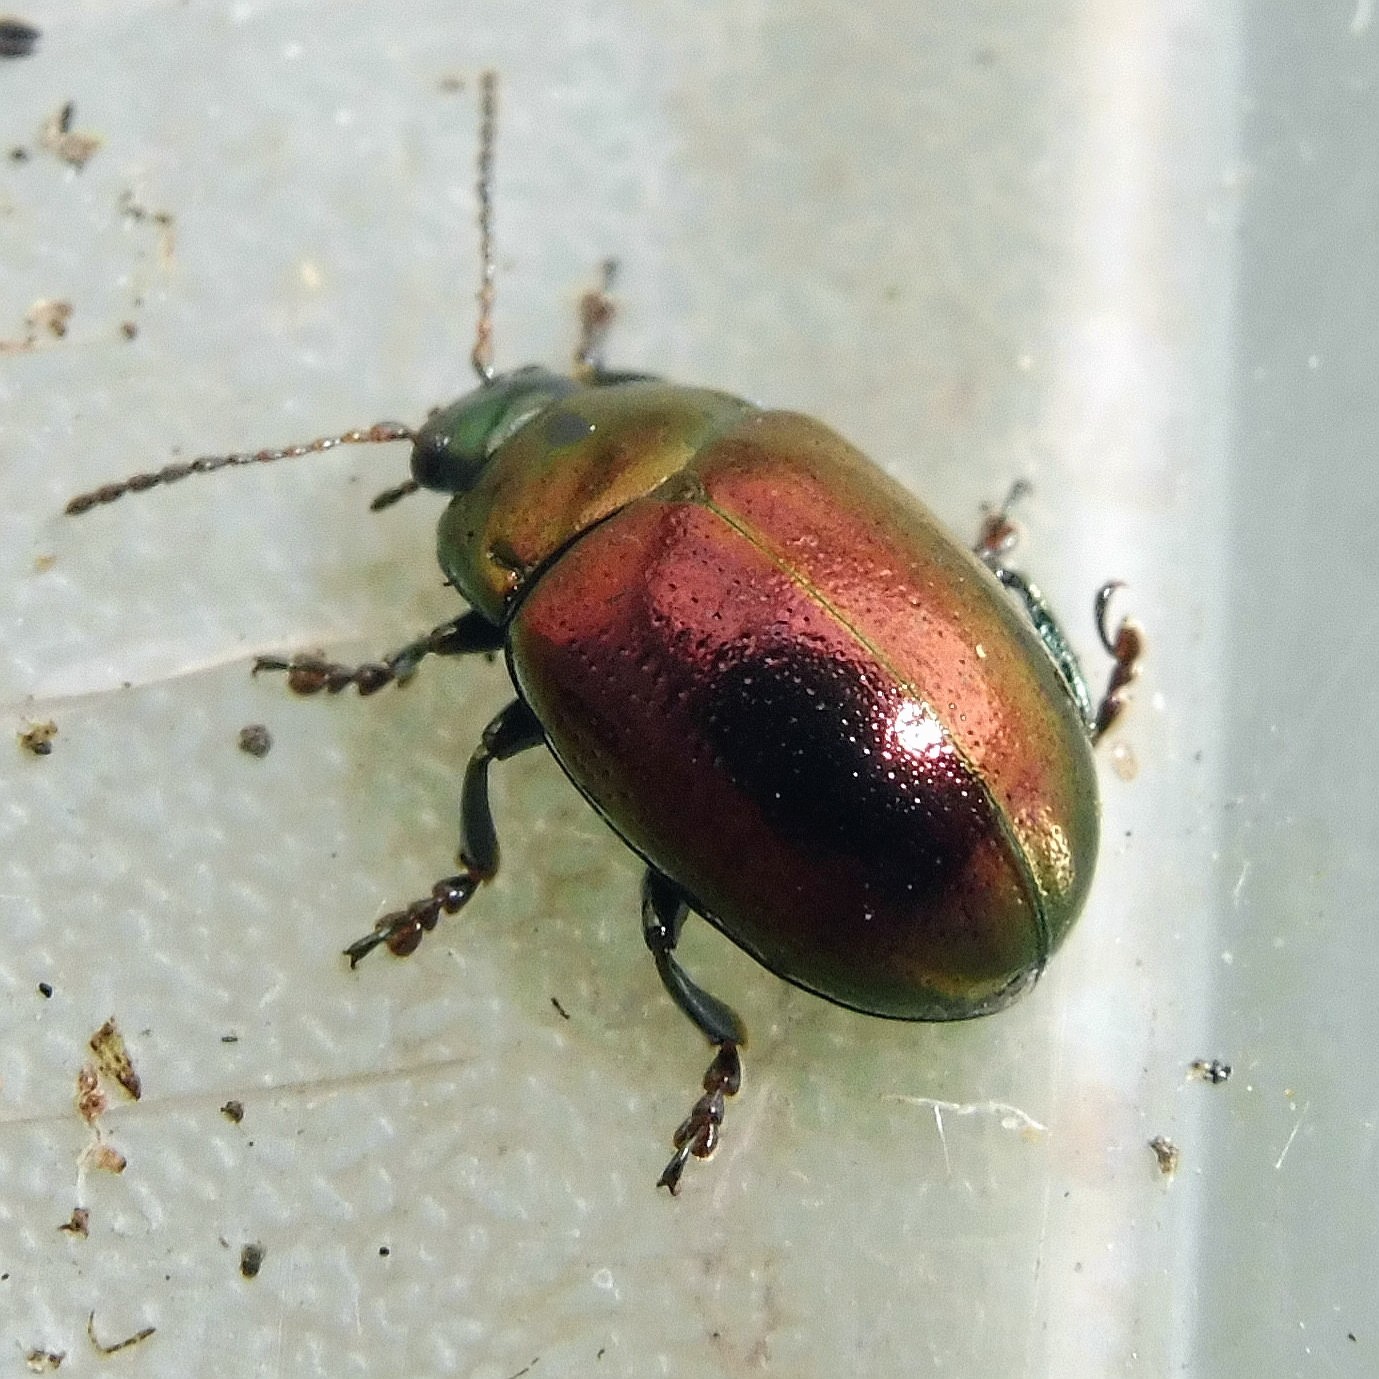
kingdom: Animalia
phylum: Arthropoda
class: Insecta
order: Coleoptera
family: Chrysomelidae
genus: Chrysolina
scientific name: Chrysolina brunsvicensis
